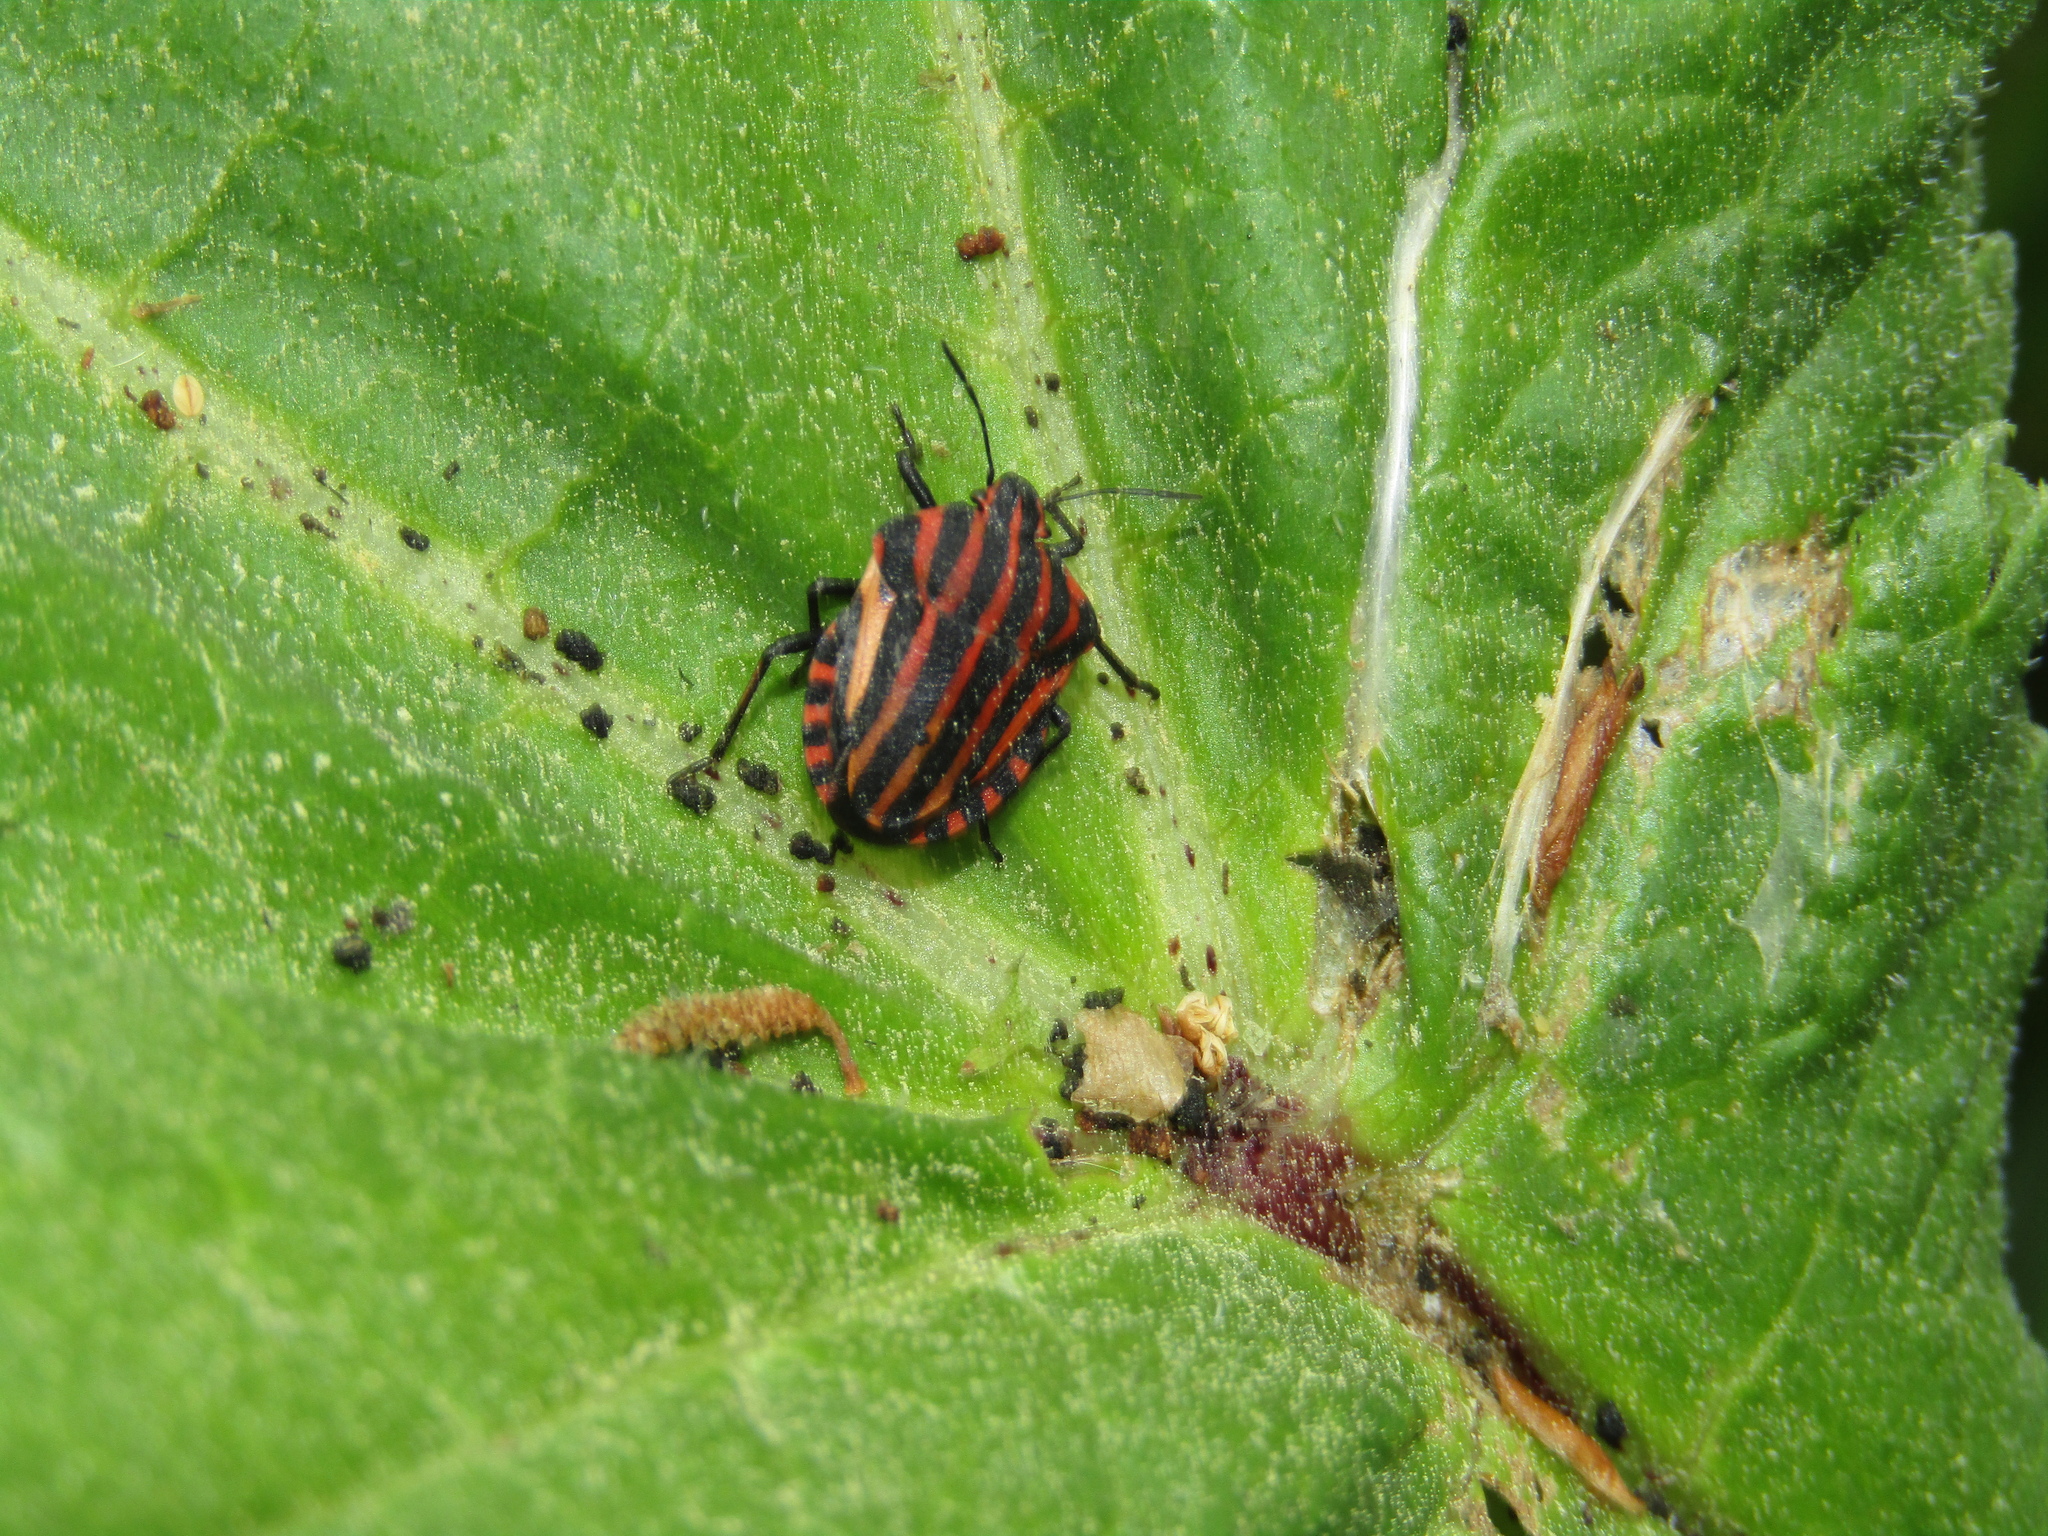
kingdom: Animalia
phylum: Arthropoda
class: Insecta
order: Hemiptera
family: Pentatomidae
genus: Graphosoma
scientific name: Graphosoma italicum
